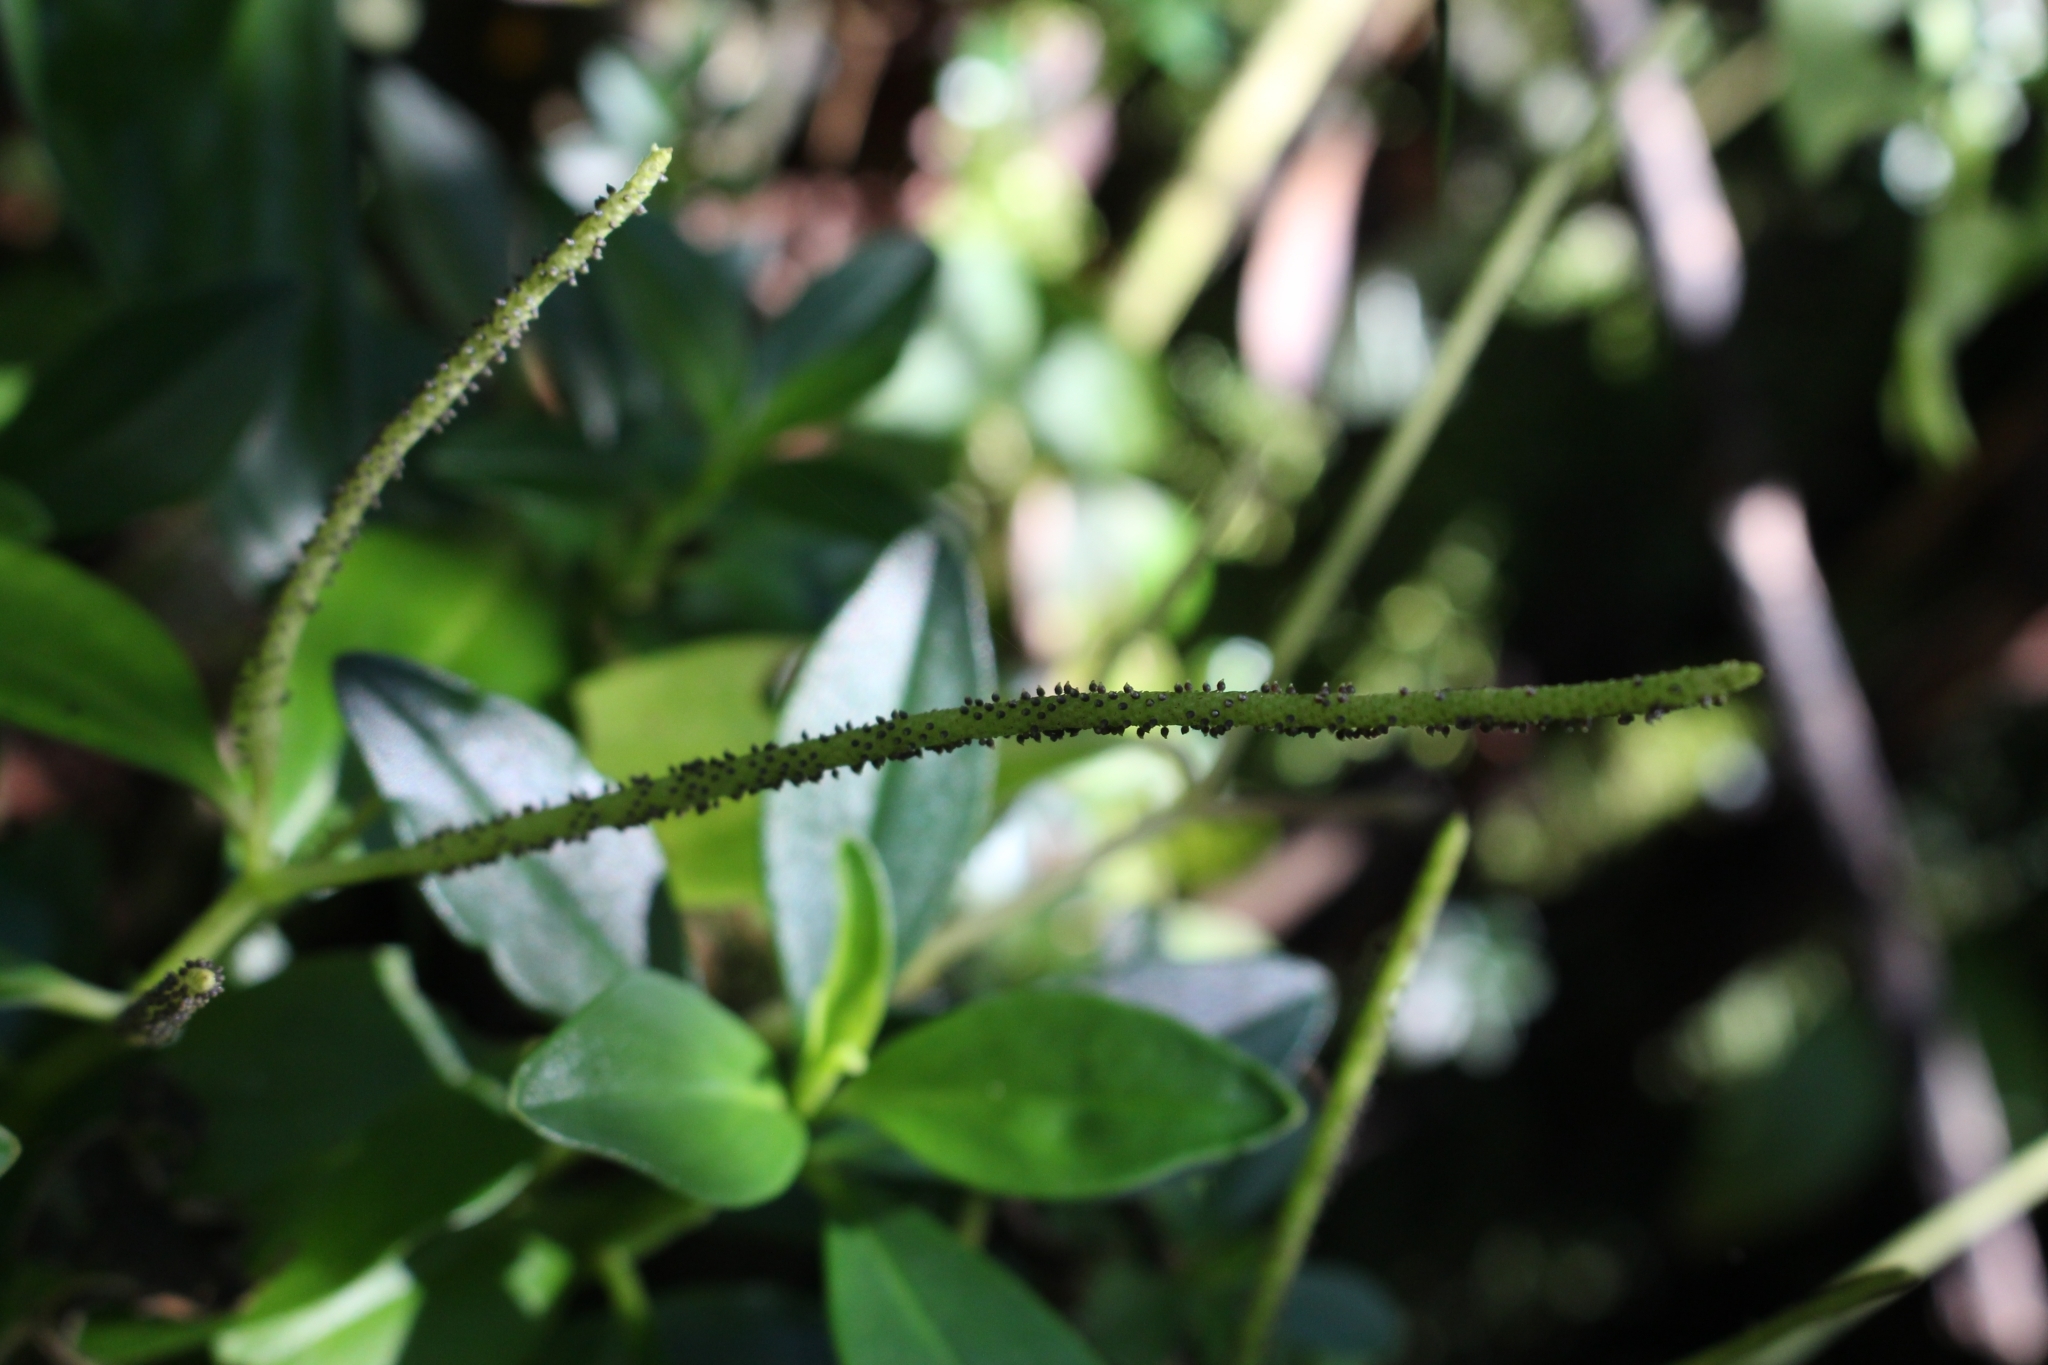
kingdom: Plantae
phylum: Tracheophyta
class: Magnoliopsida
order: Piperales
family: Piperaceae
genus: Peperomia
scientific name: Peperomia san-joseana
